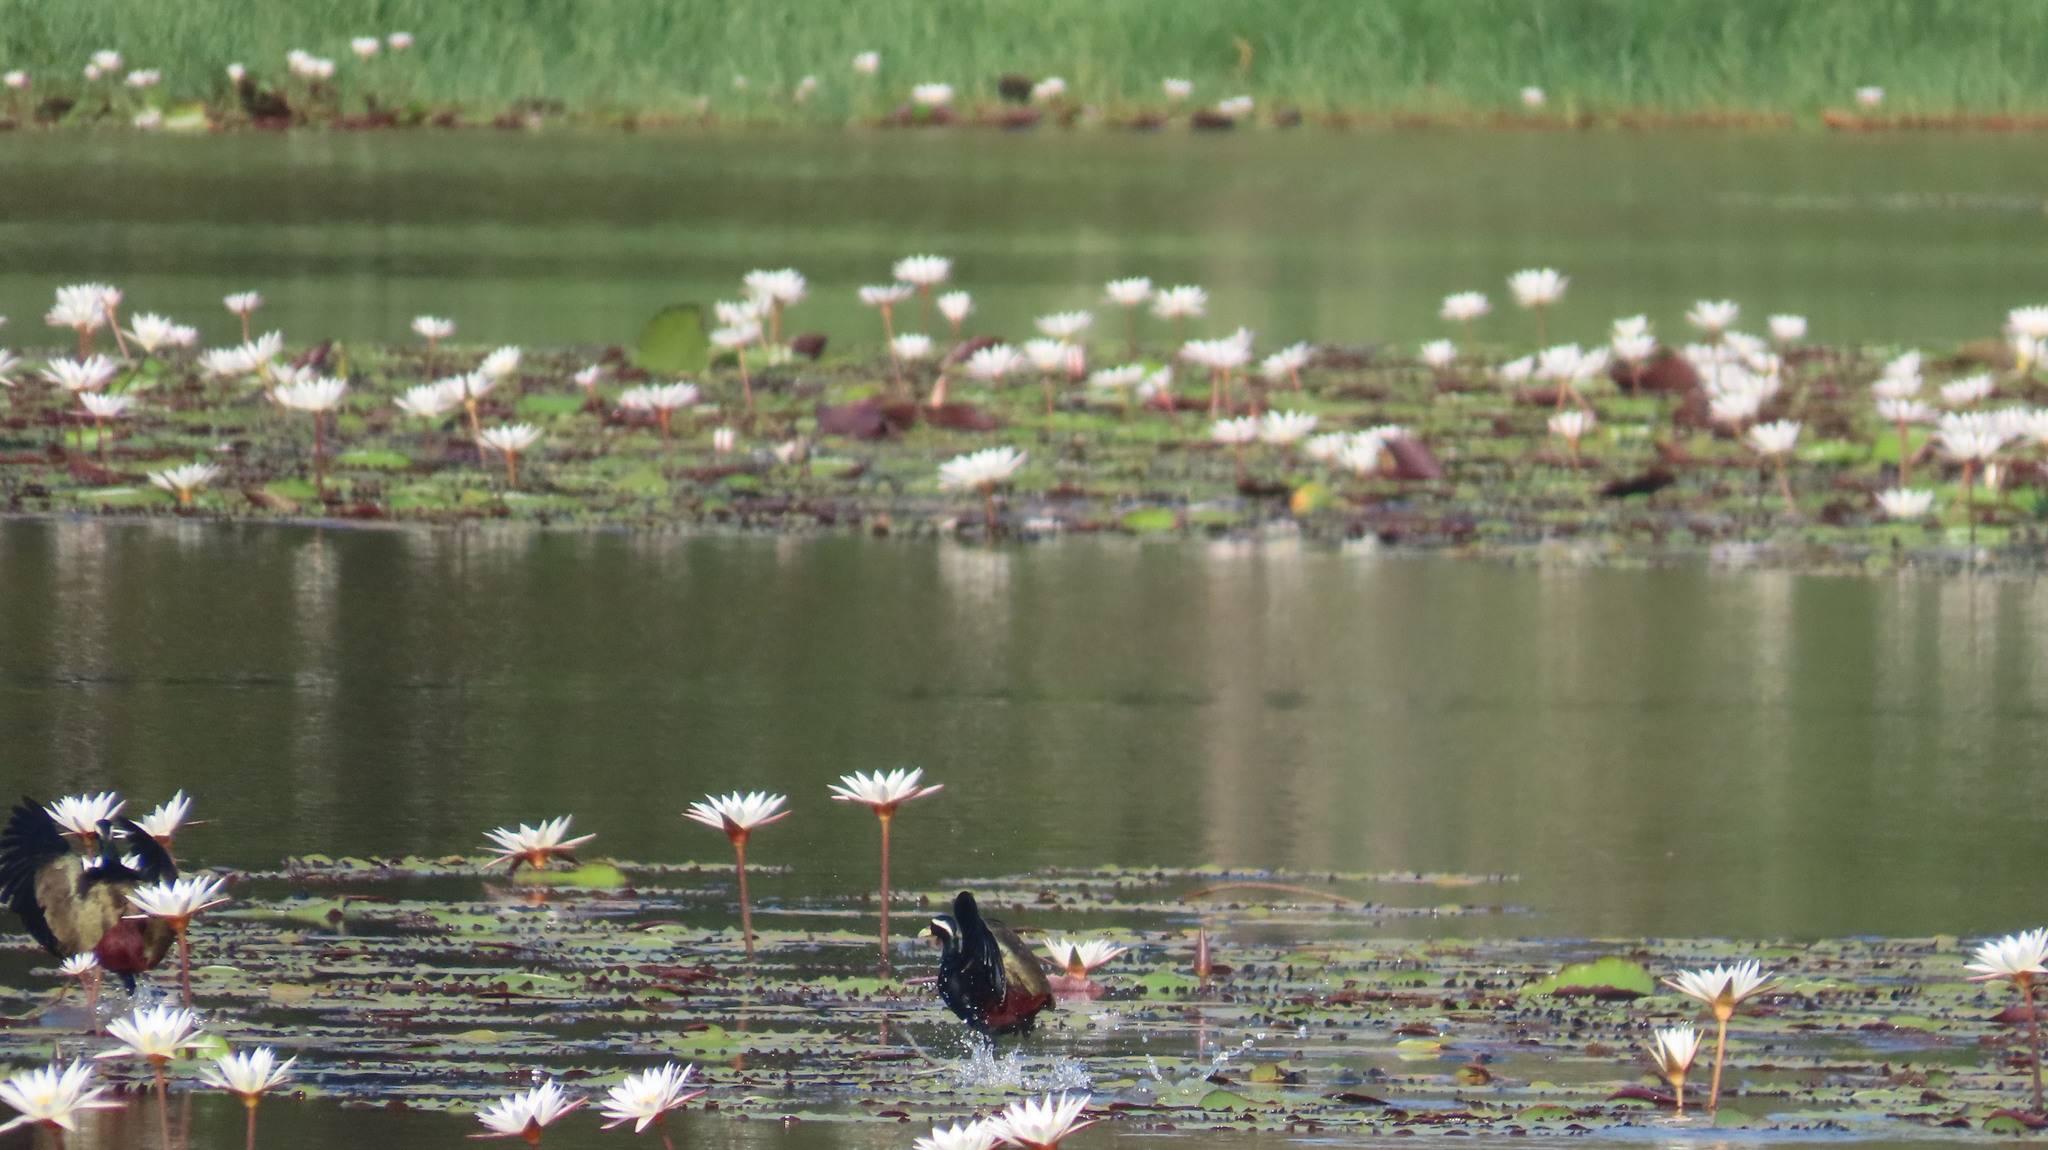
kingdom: Animalia
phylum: Chordata
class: Aves
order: Charadriiformes
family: Jacanidae
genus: Metopidius
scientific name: Metopidius indicus
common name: Bronze-winged jacana
